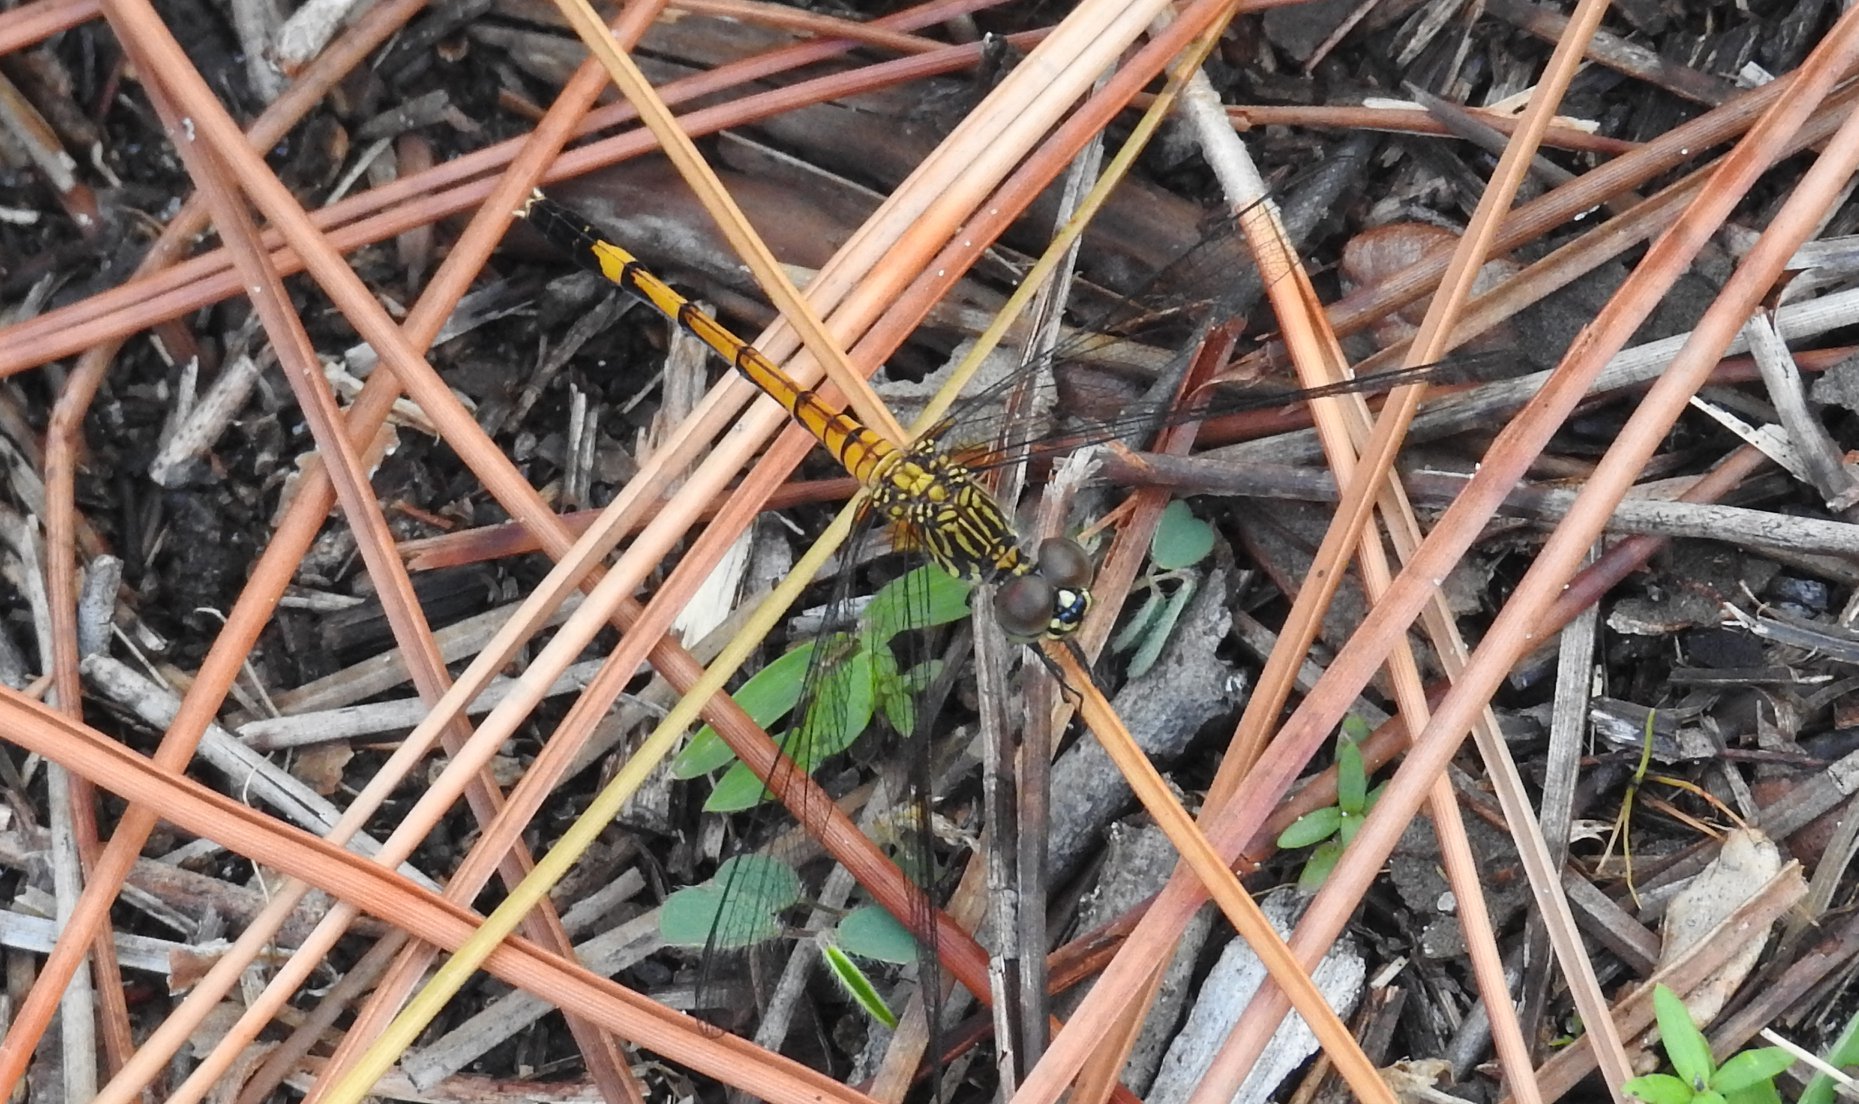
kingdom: Animalia
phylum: Arthropoda
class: Insecta
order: Odonata
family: Libellulidae
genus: Erythrodiplax
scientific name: Erythrodiplax berenice
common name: Seaside dragonlet
